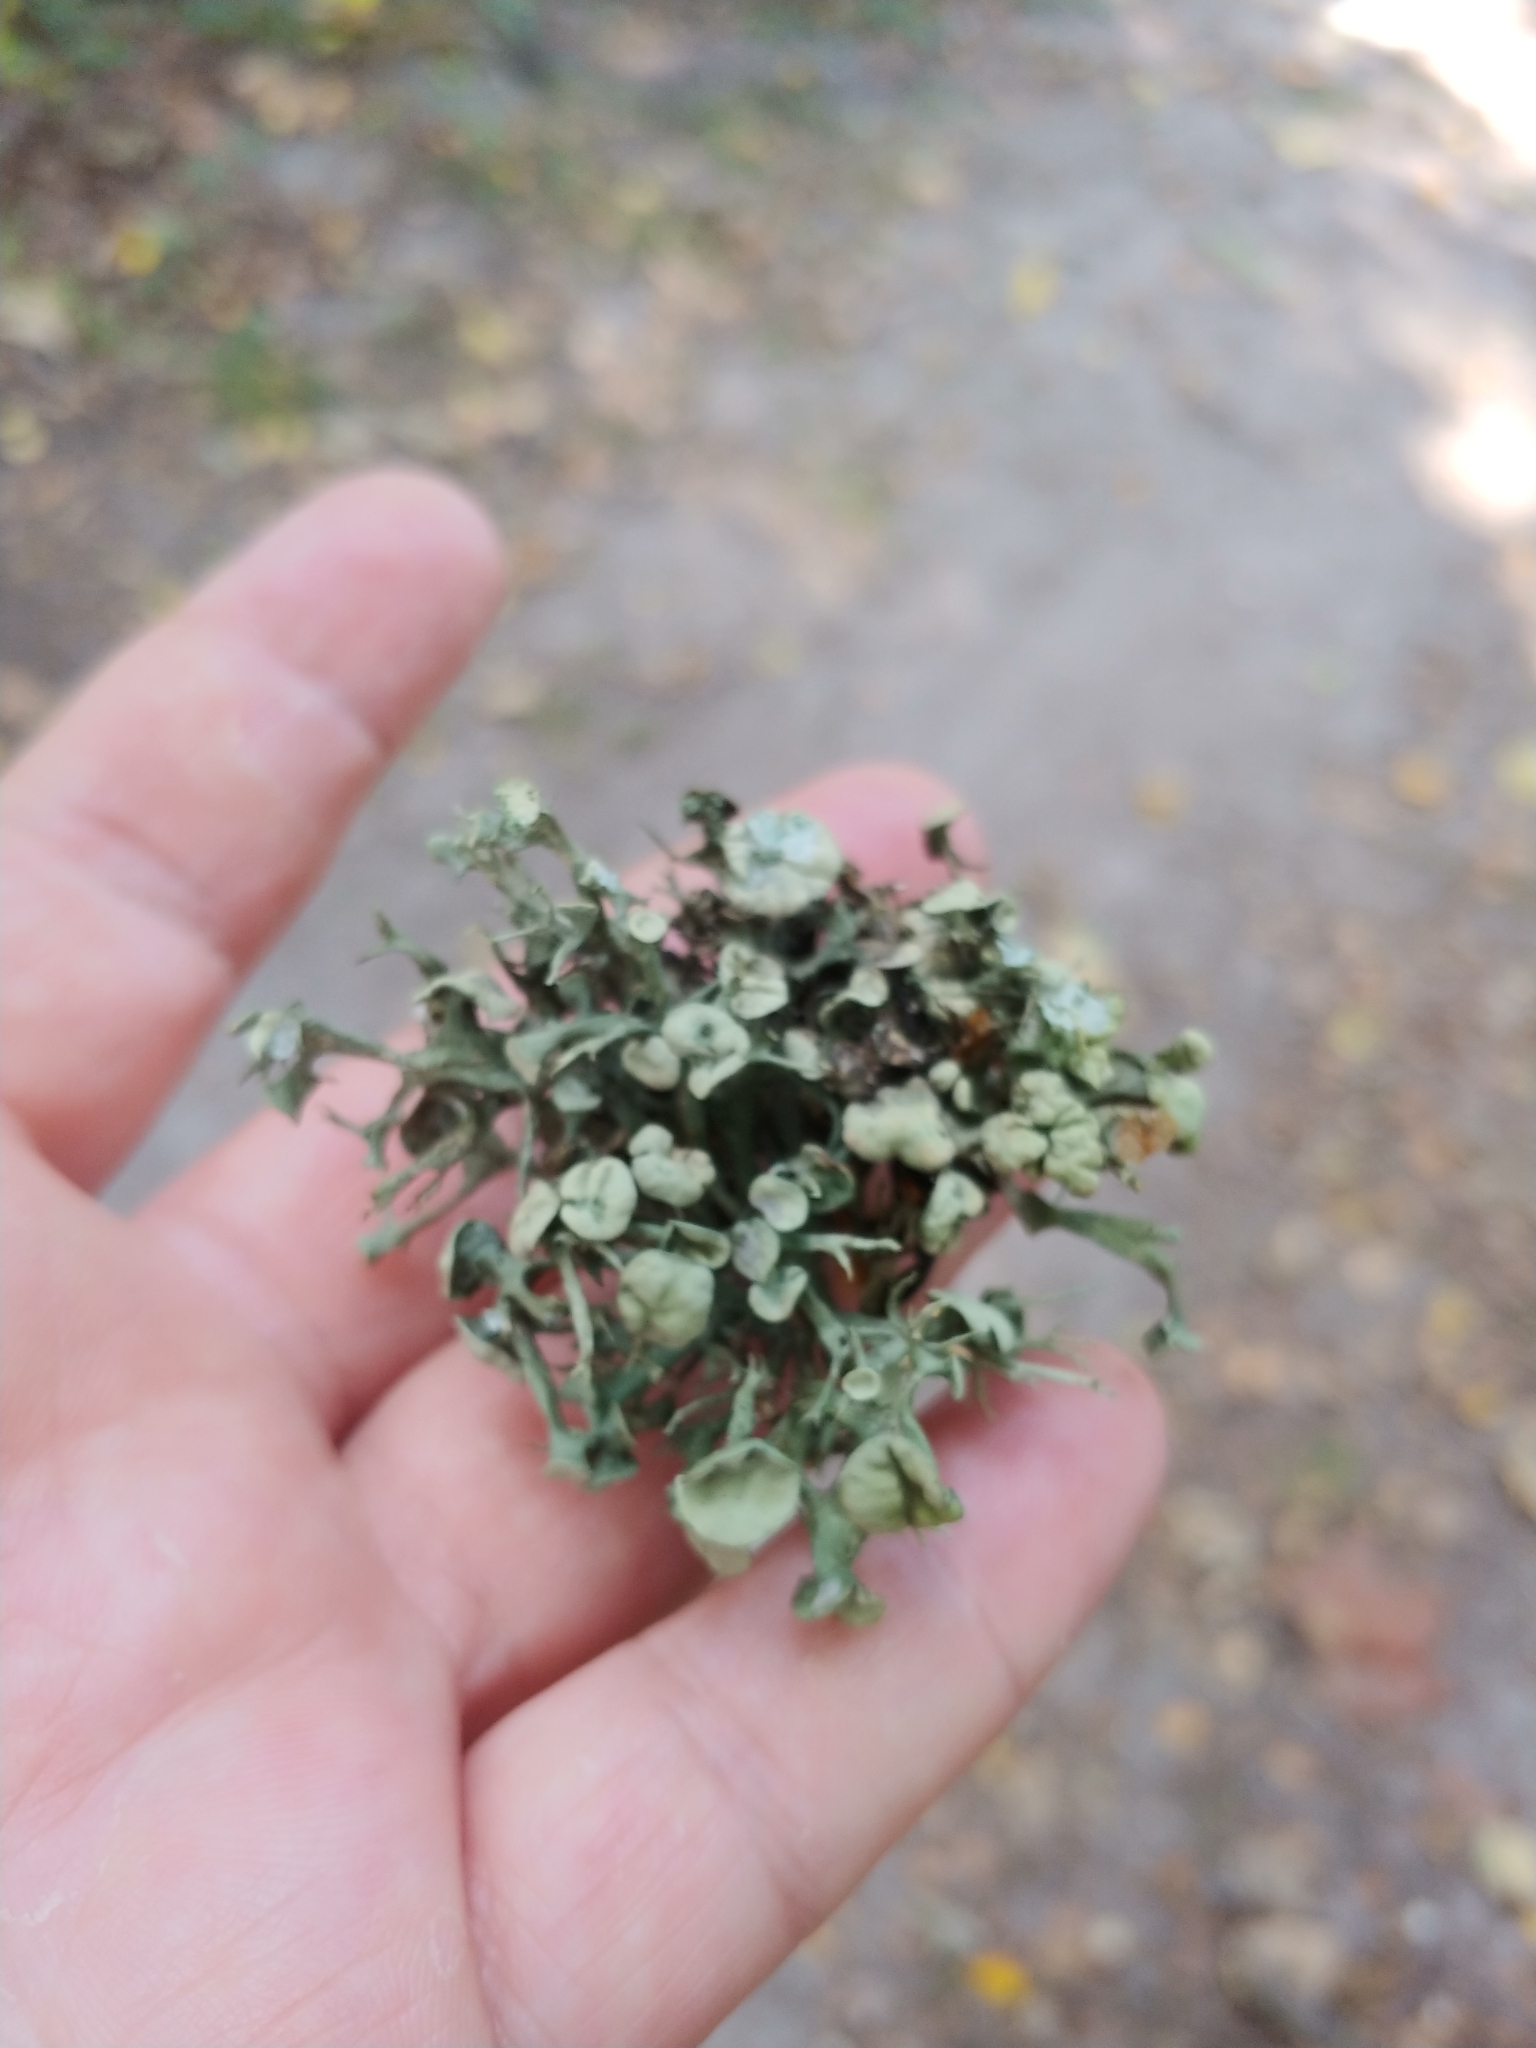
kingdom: Fungi
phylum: Ascomycota
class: Lecanoromycetes
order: Lecanorales
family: Ramalinaceae
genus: Ramalina
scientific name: Ramalina fastigiata
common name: Dotted ribbon lichen
